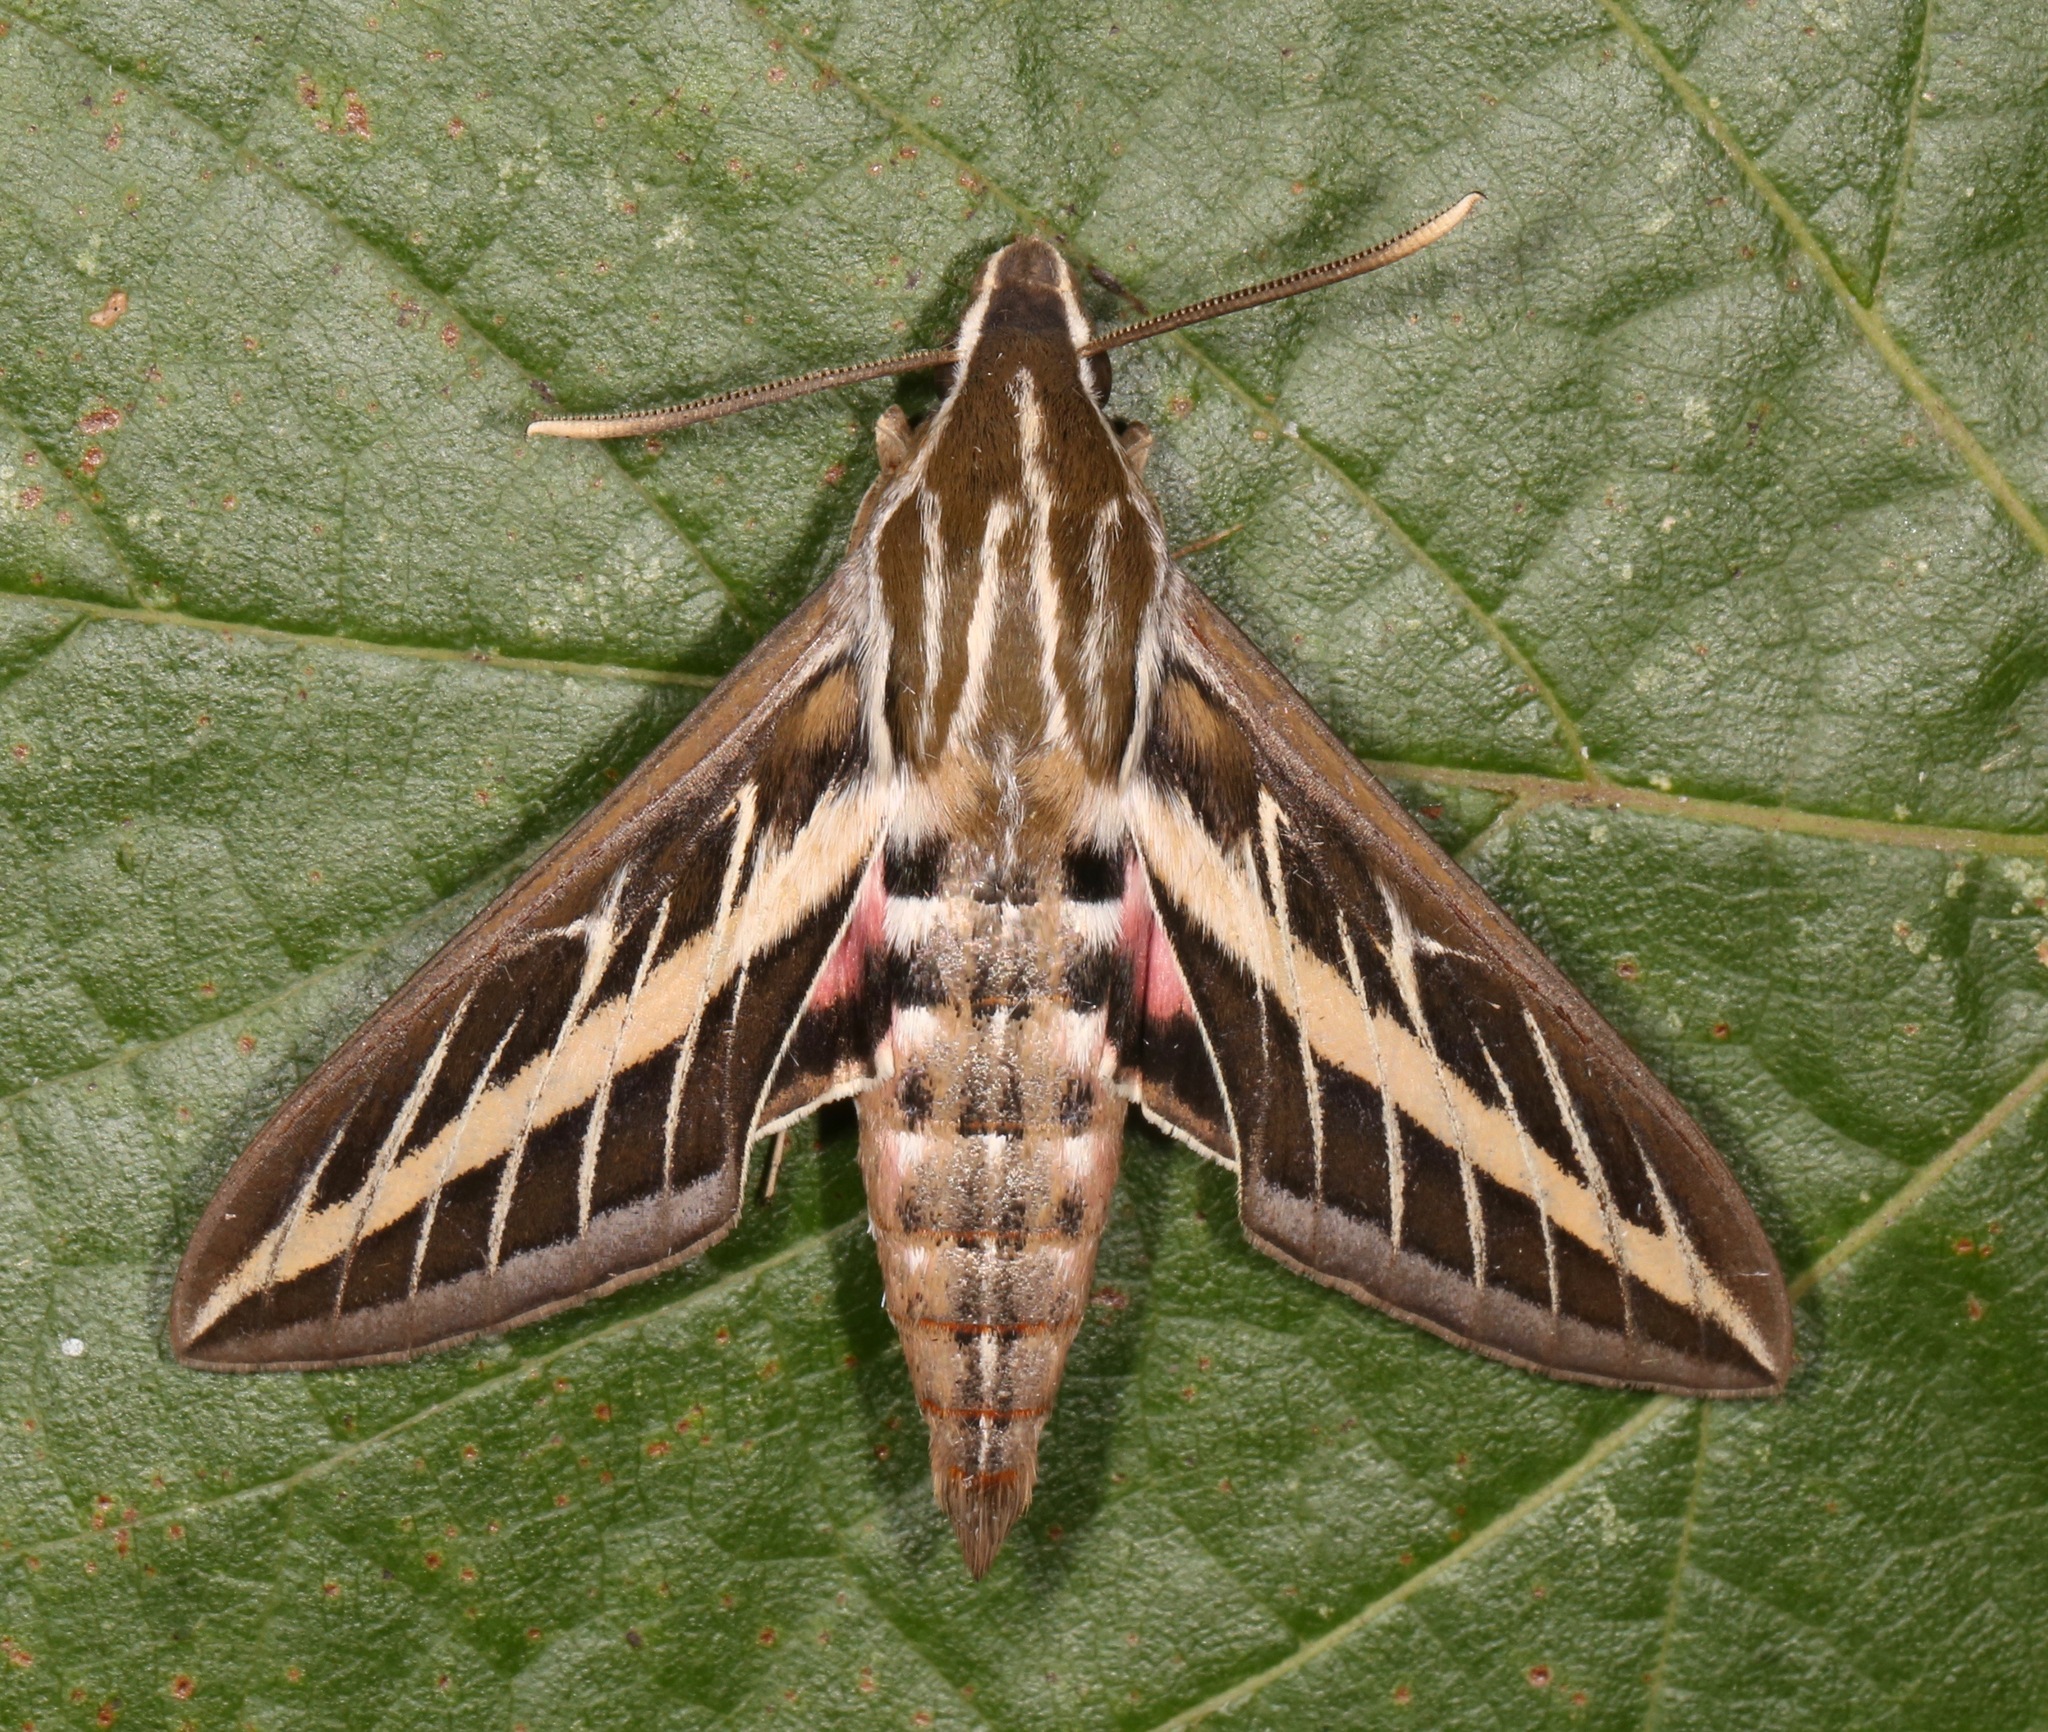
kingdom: Animalia
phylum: Arthropoda
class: Insecta
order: Lepidoptera
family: Sphingidae
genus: Hyles
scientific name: Hyles lineata
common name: White-lined sphinx
